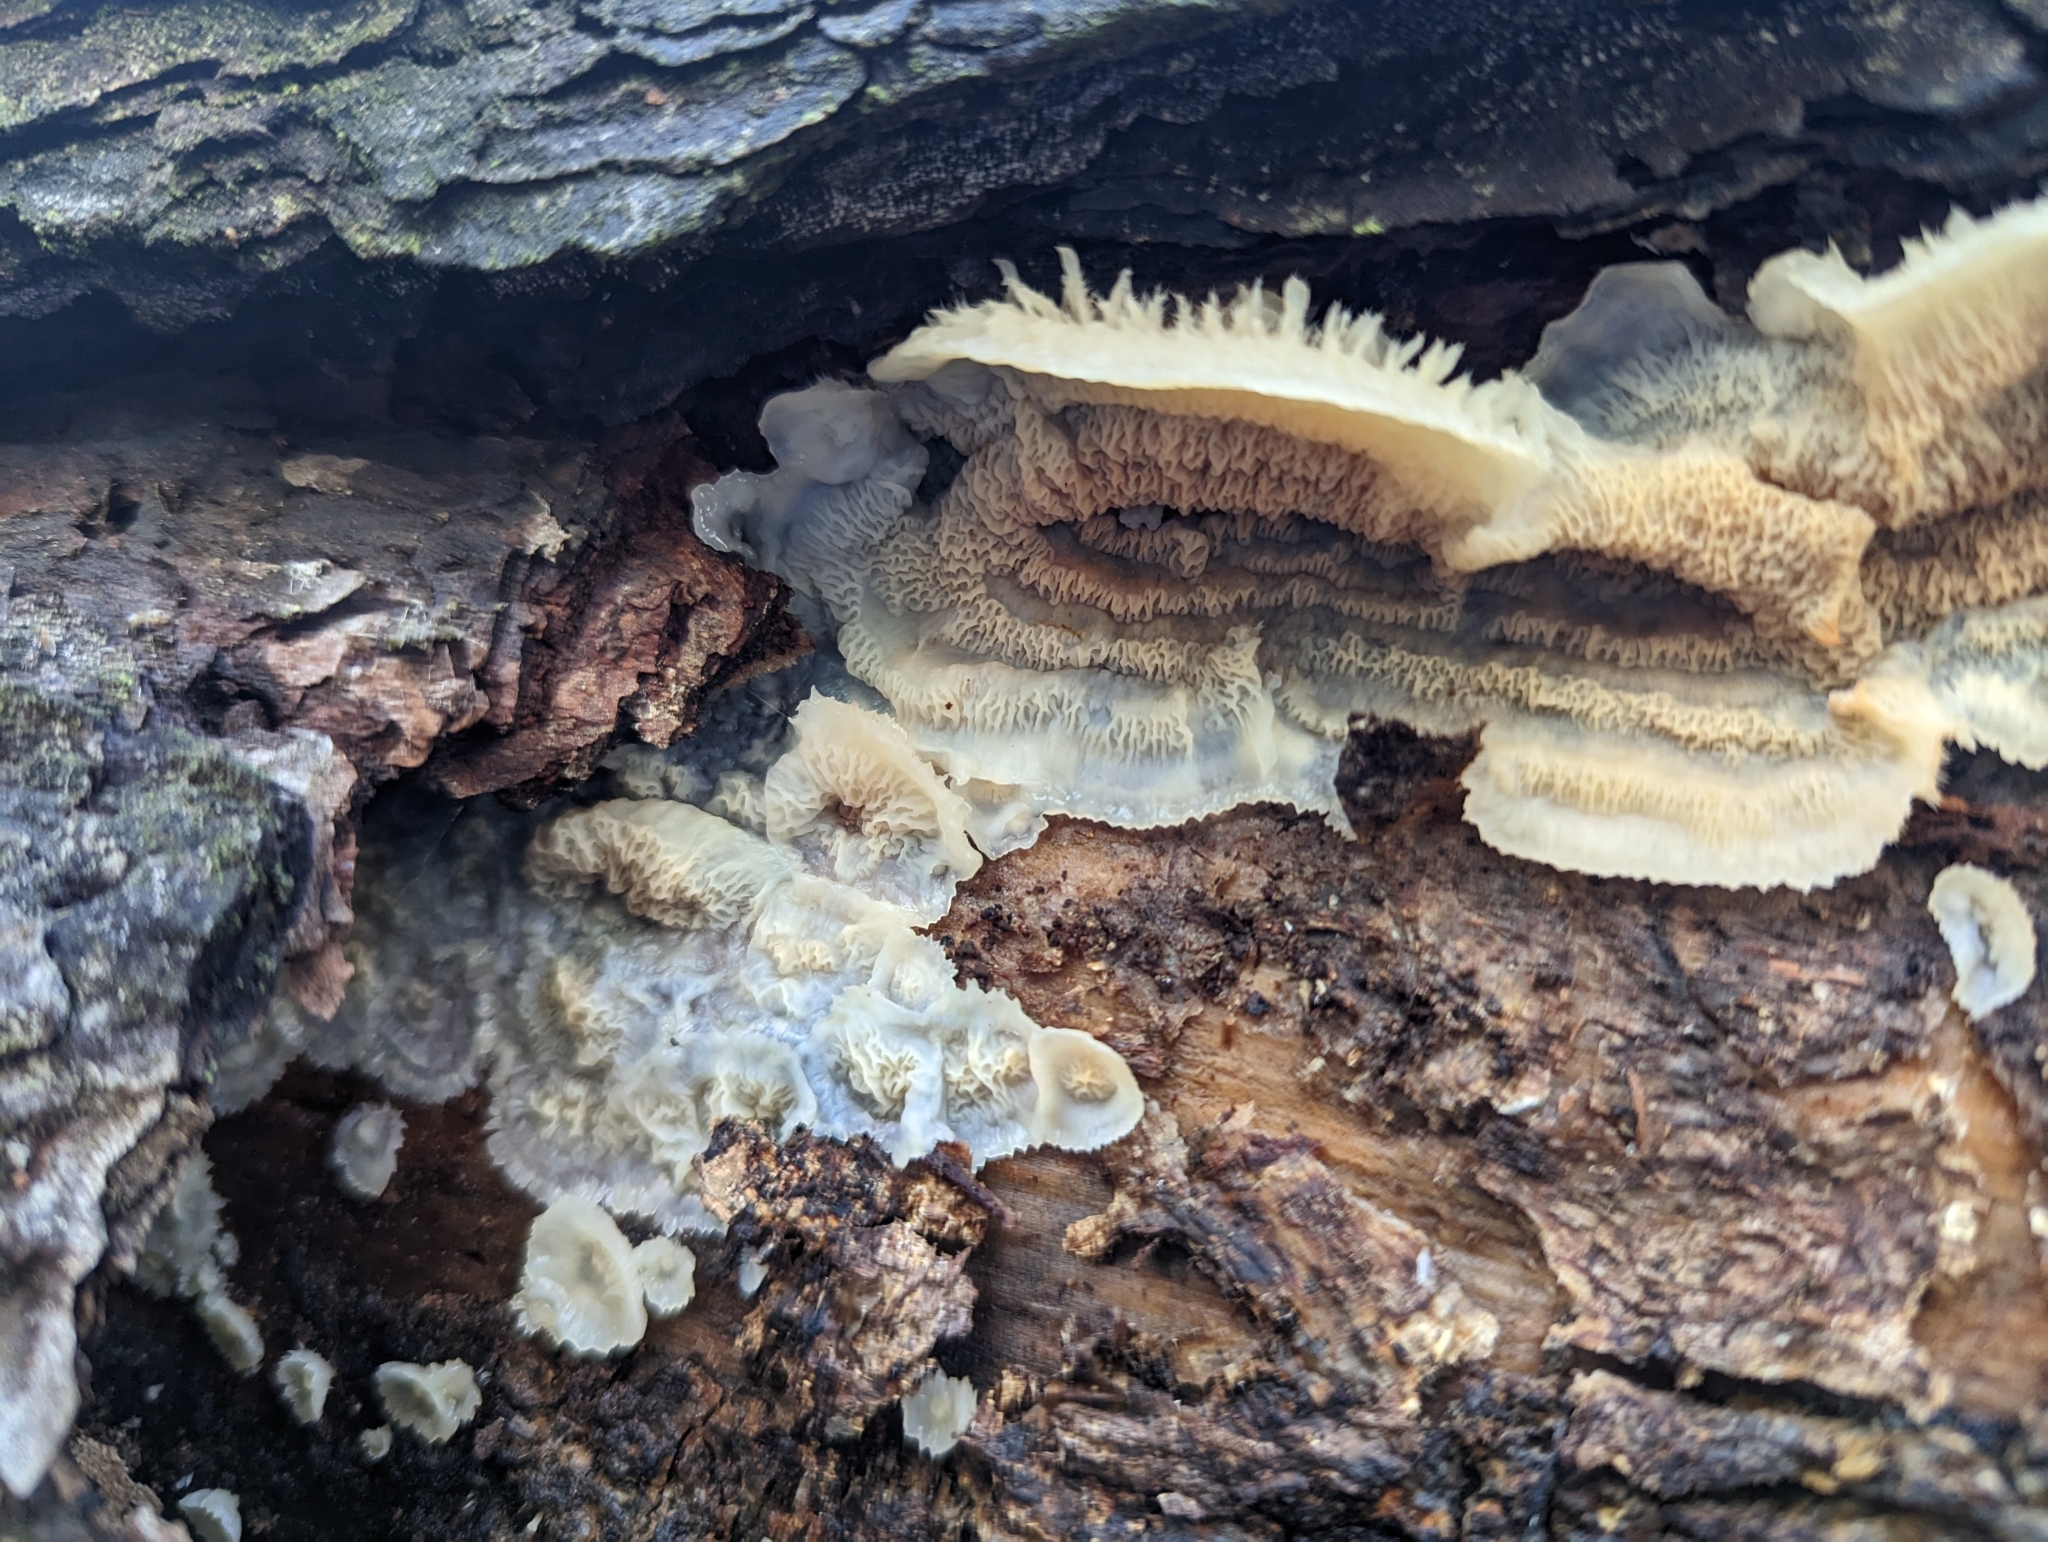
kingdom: Fungi
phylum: Basidiomycota
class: Agaricomycetes
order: Polyporales
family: Meruliaceae
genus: Phlebia
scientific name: Phlebia tremellosa
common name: Jelly rot
